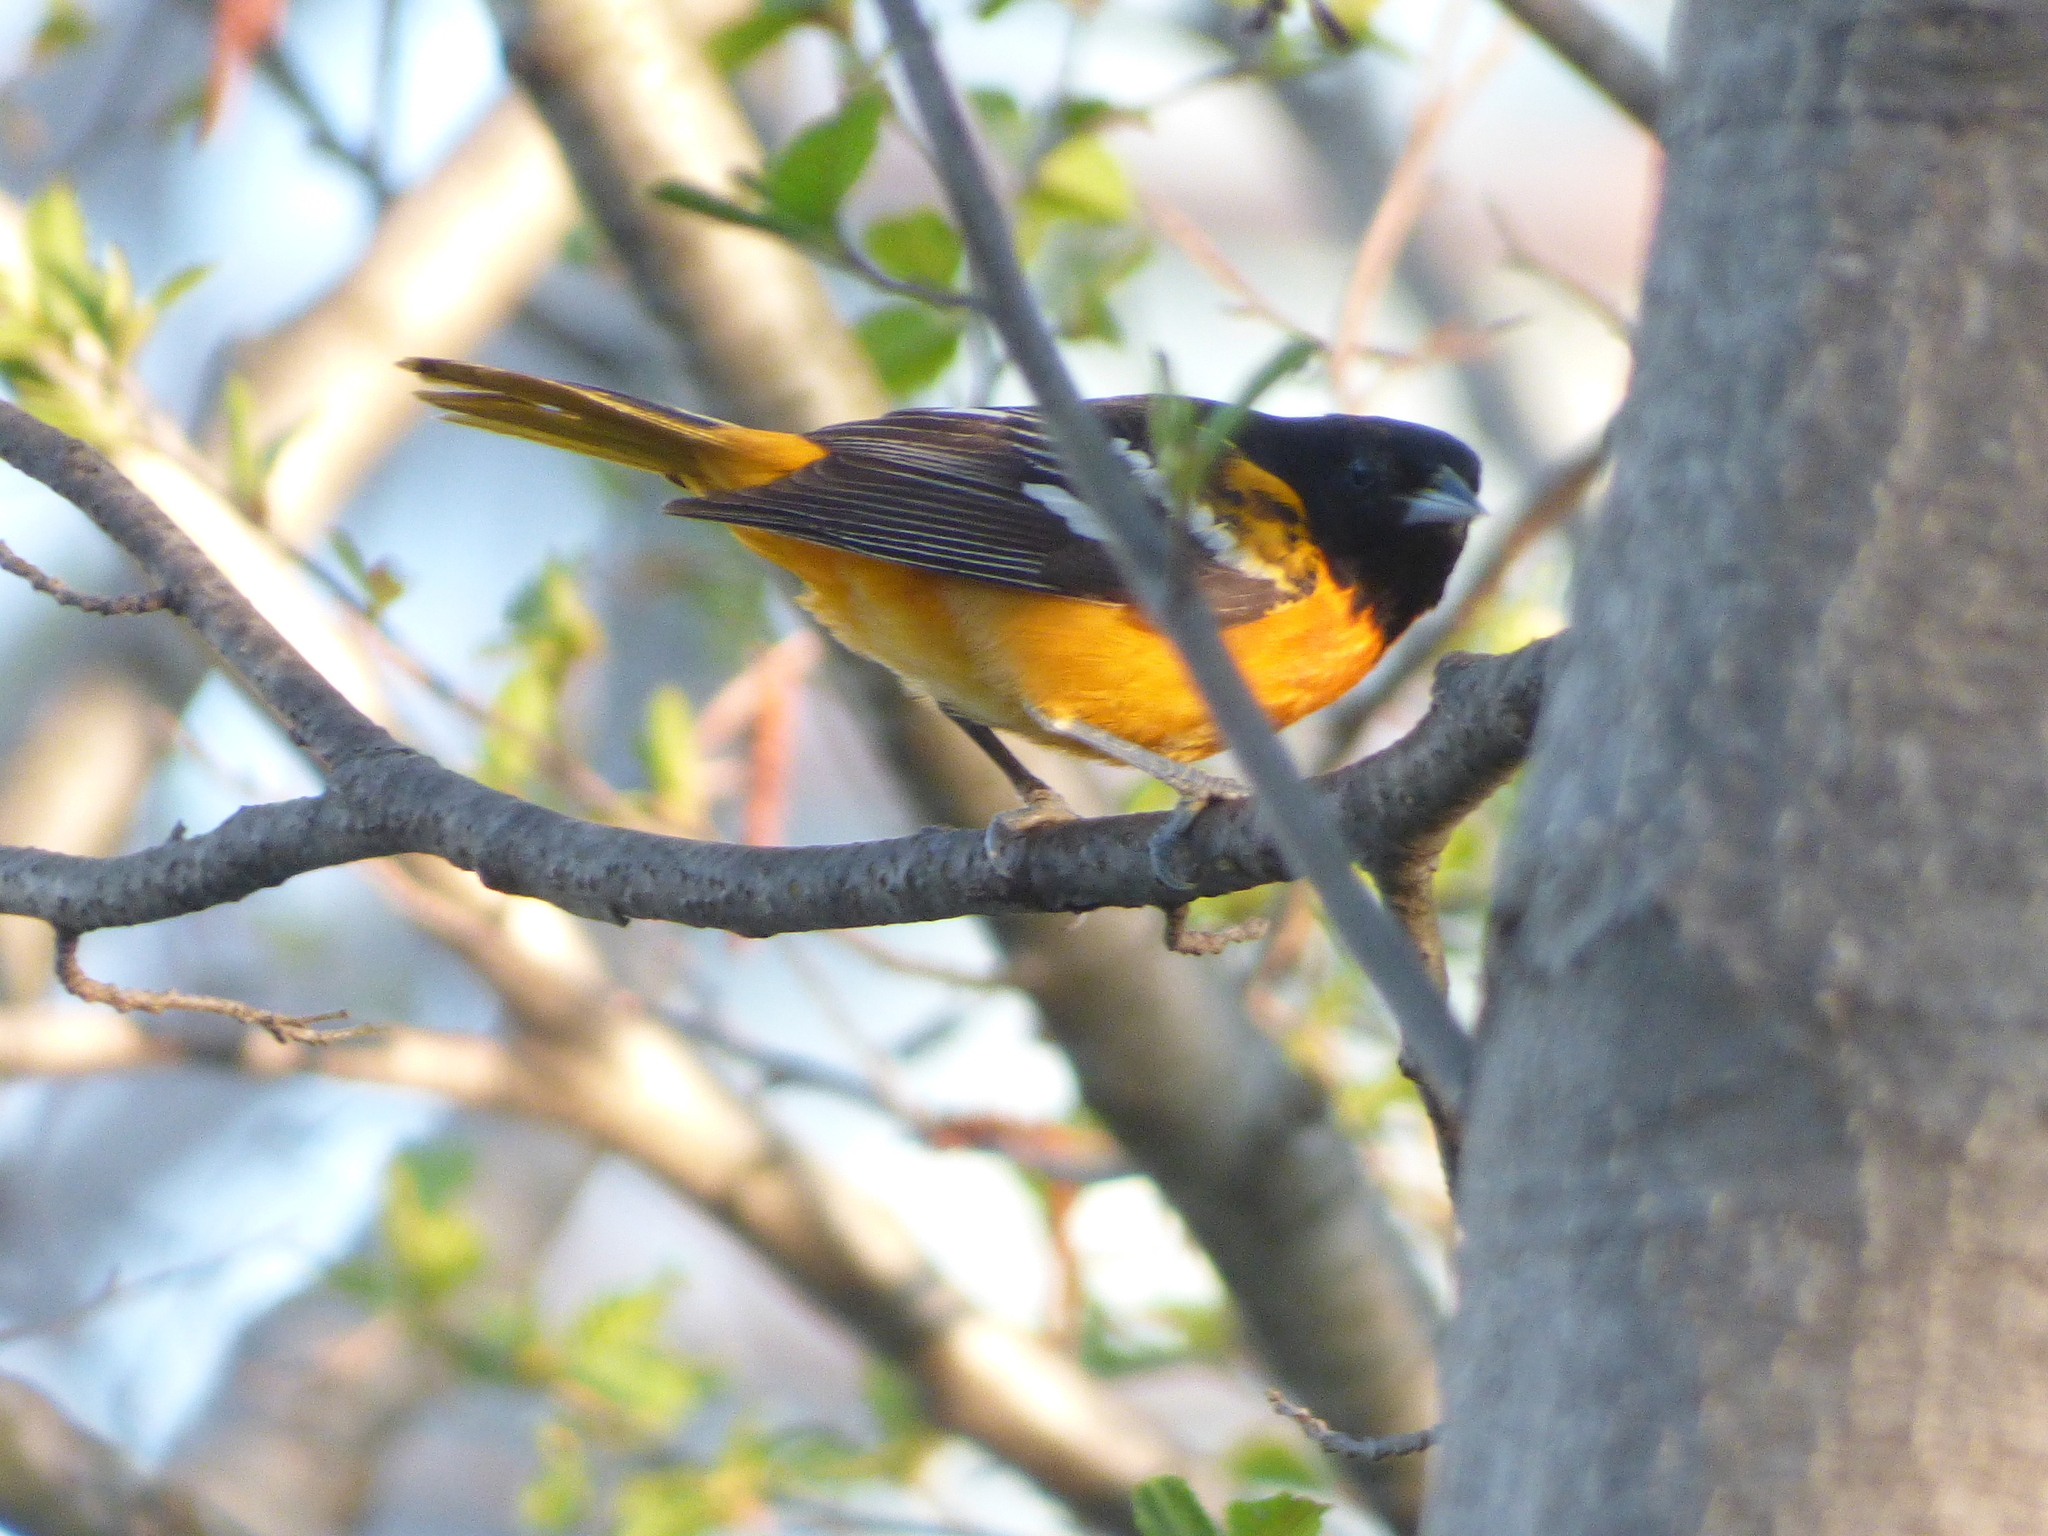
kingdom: Animalia
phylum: Chordata
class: Aves
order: Passeriformes
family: Icteridae
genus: Icterus
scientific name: Icterus galbula
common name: Baltimore oriole
